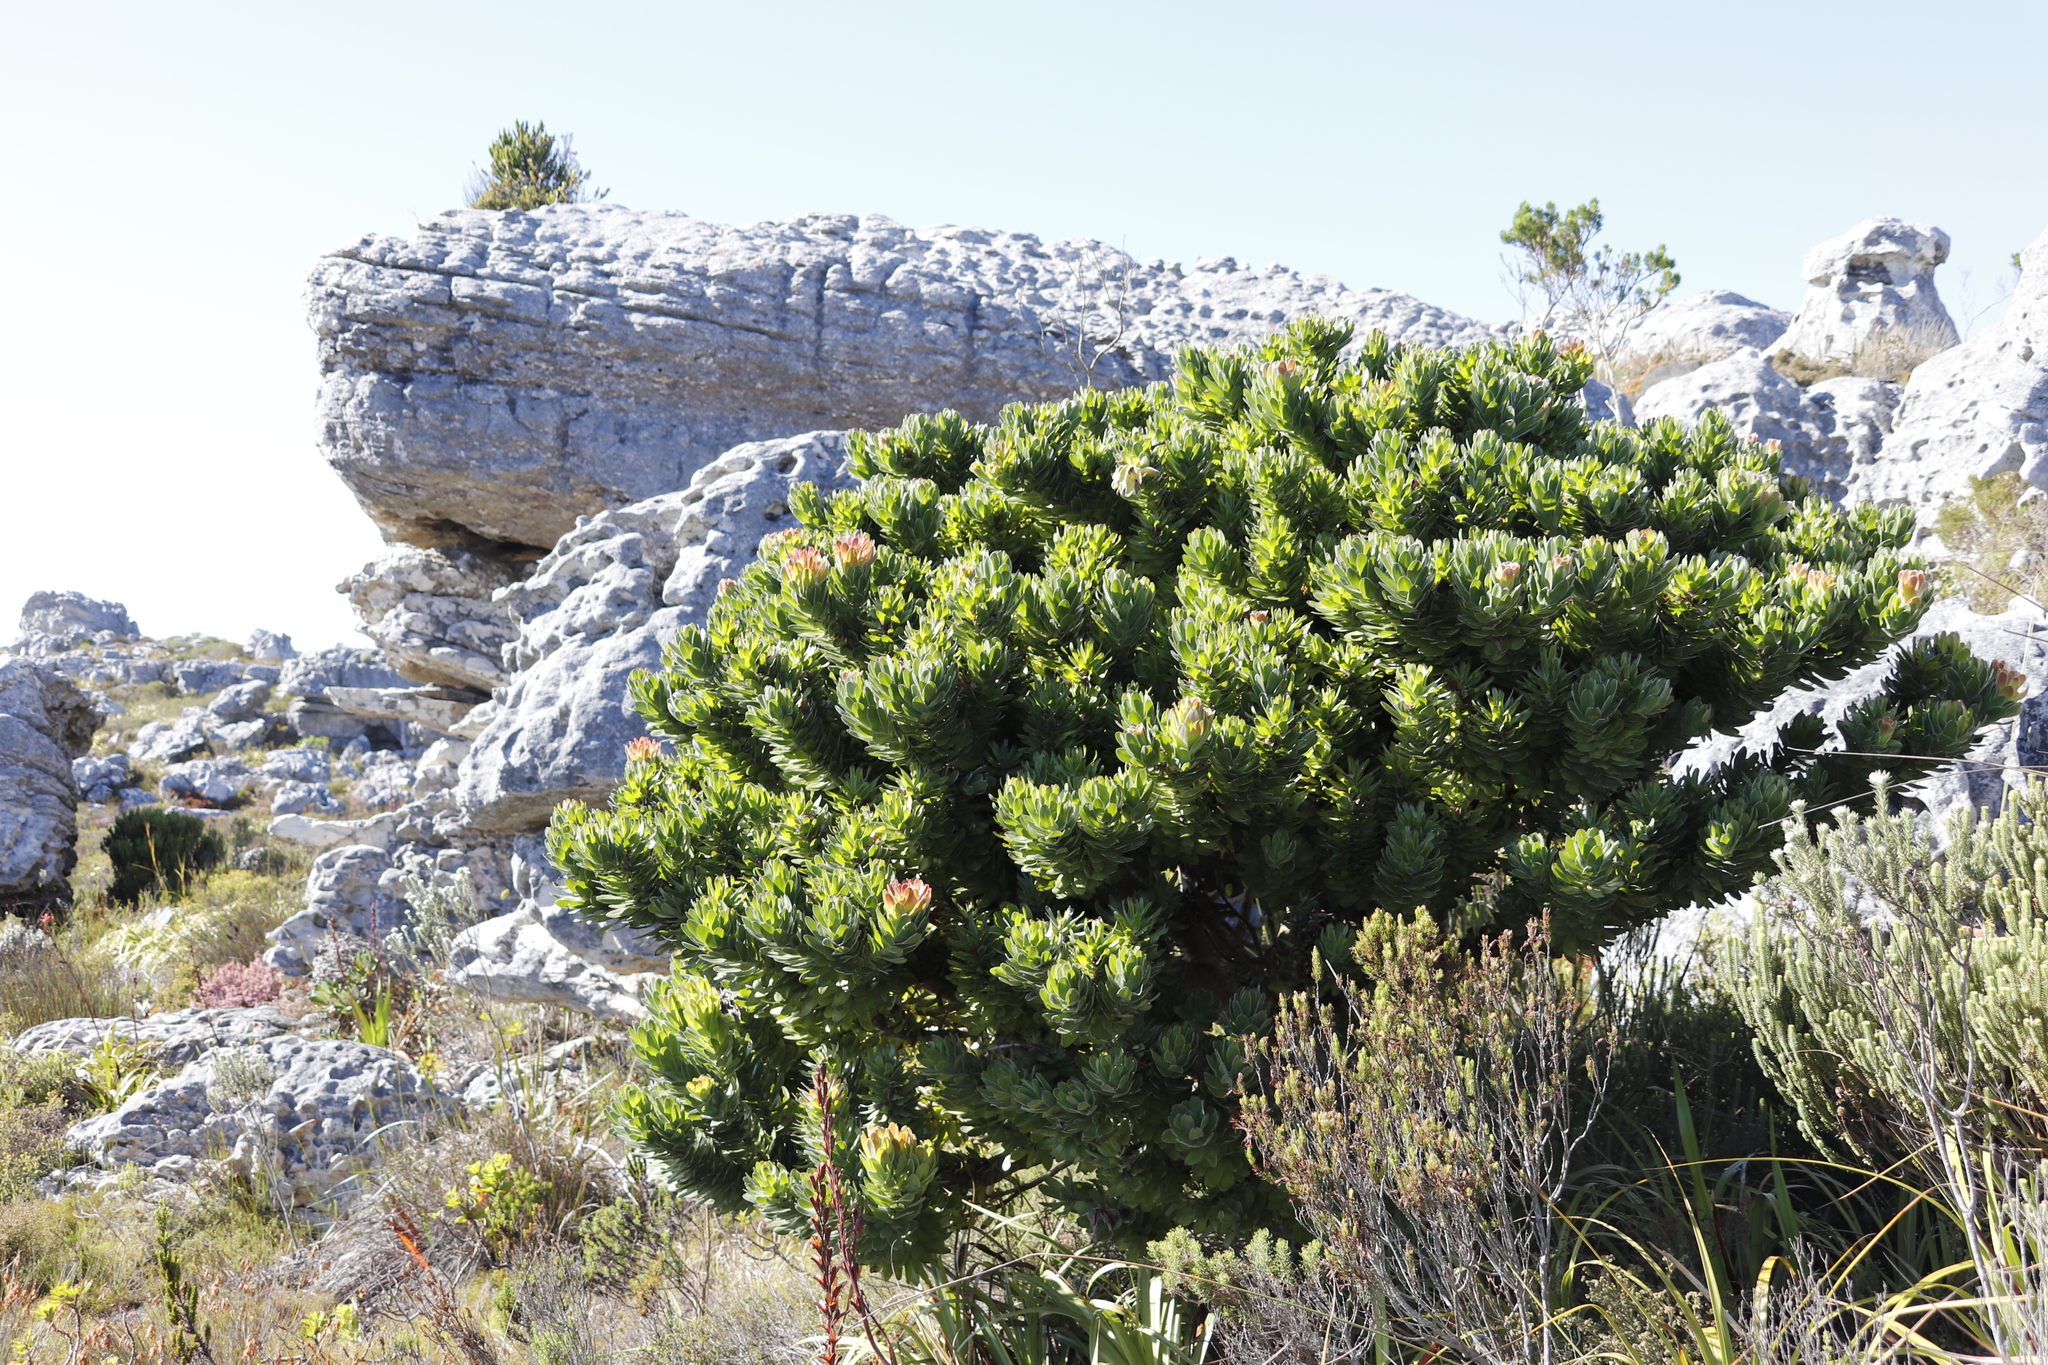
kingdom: Plantae
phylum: Tracheophyta
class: Magnoliopsida
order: Proteales
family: Proteaceae
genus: Mimetes
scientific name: Mimetes fimbriifolius
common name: Fringed bottlebrush
